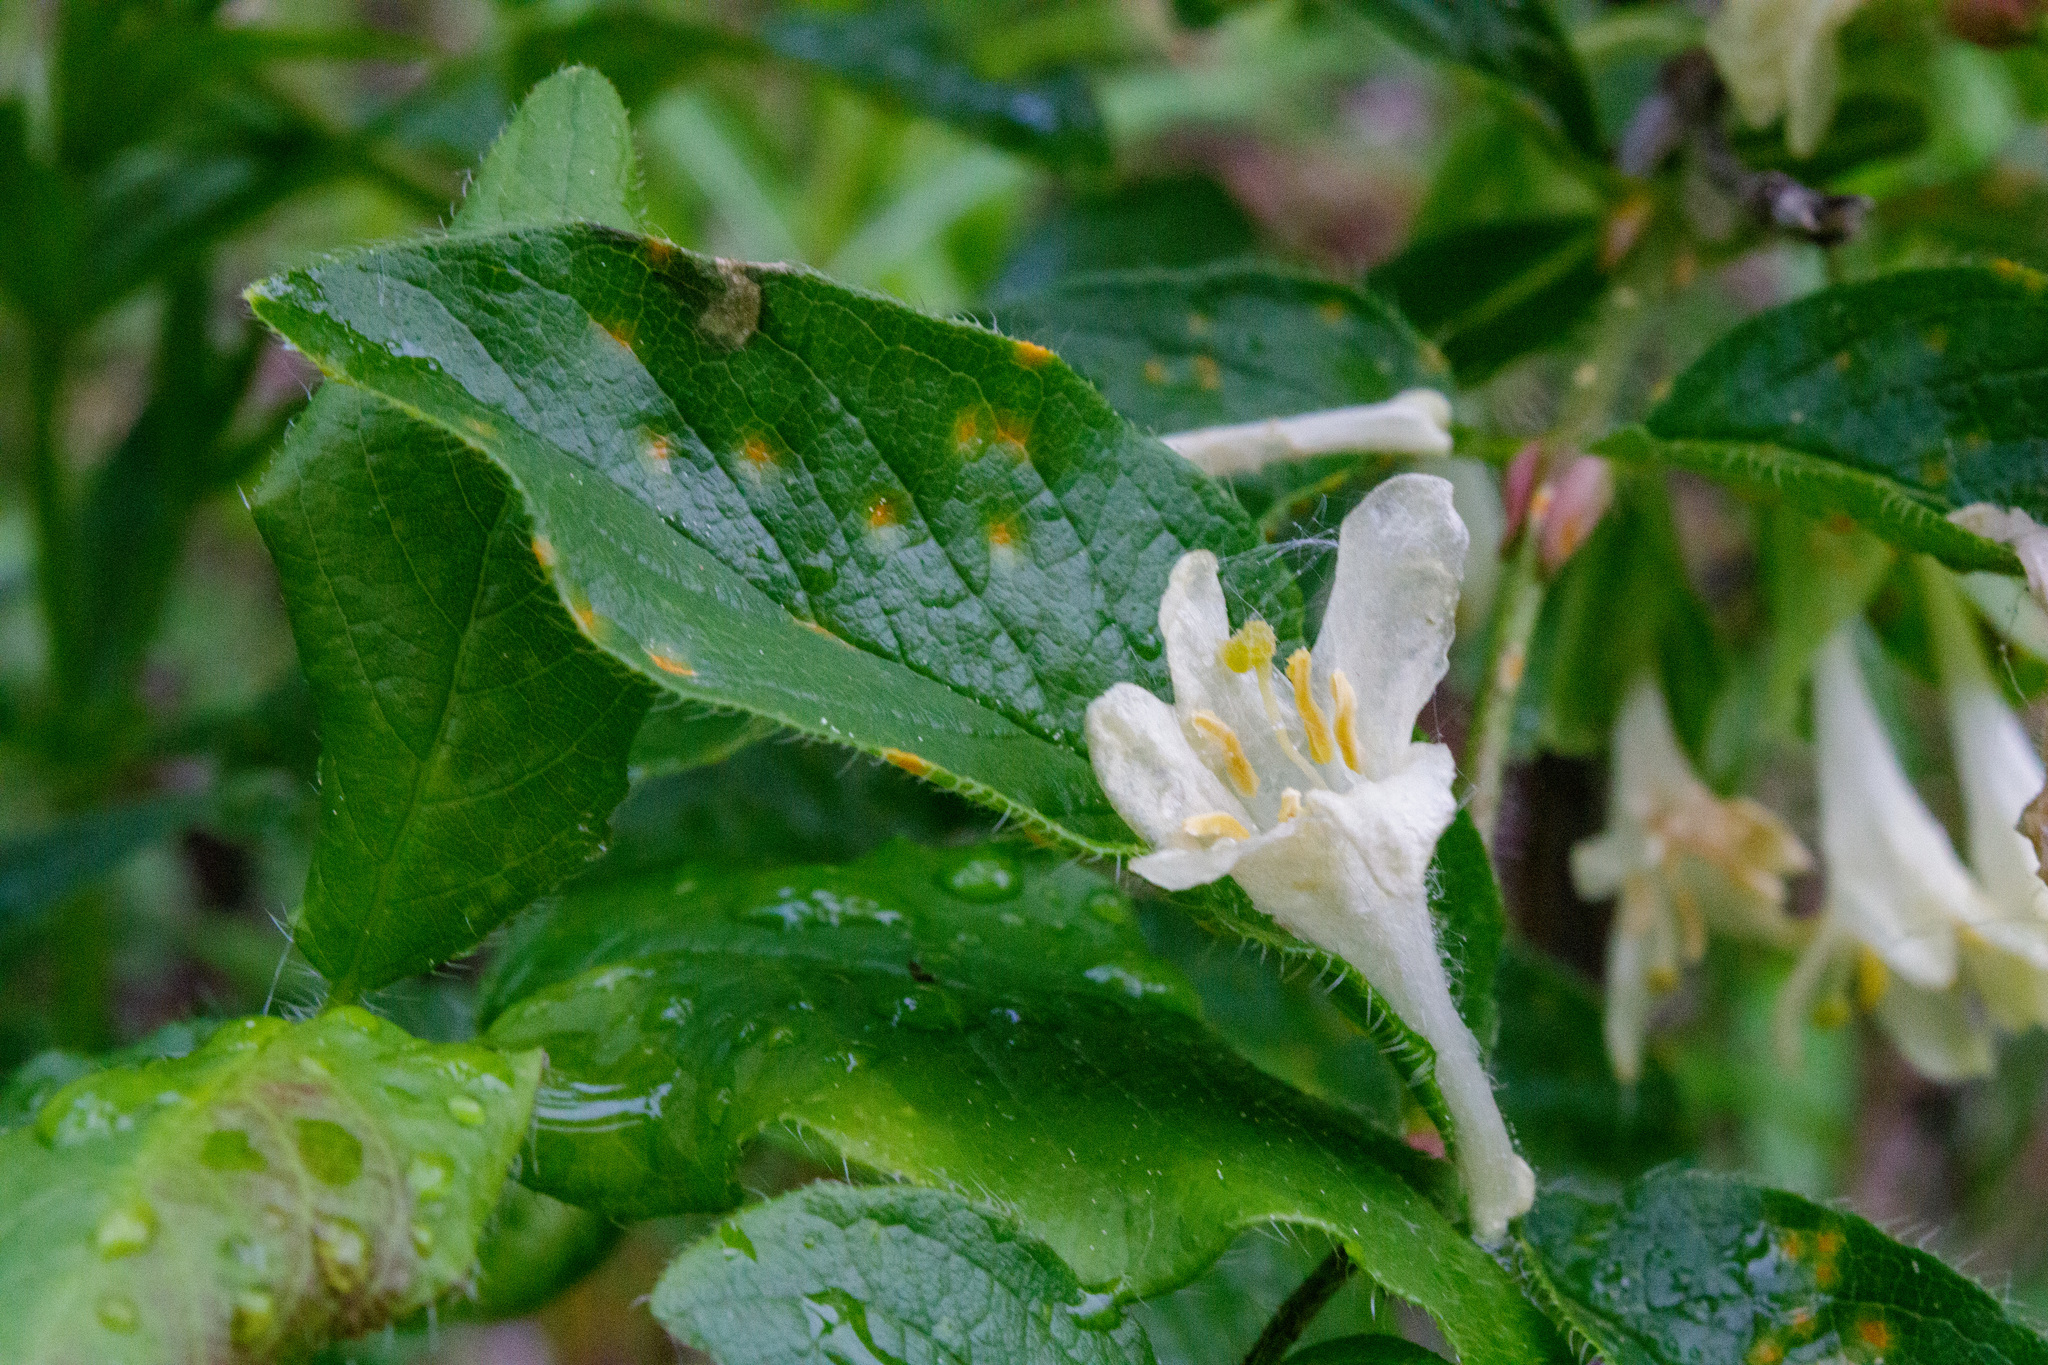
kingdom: Plantae
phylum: Tracheophyta
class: Magnoliopsida
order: Dipsacales
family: Caprifoliaceae
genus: Lonicera
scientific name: Lonicera hispida
